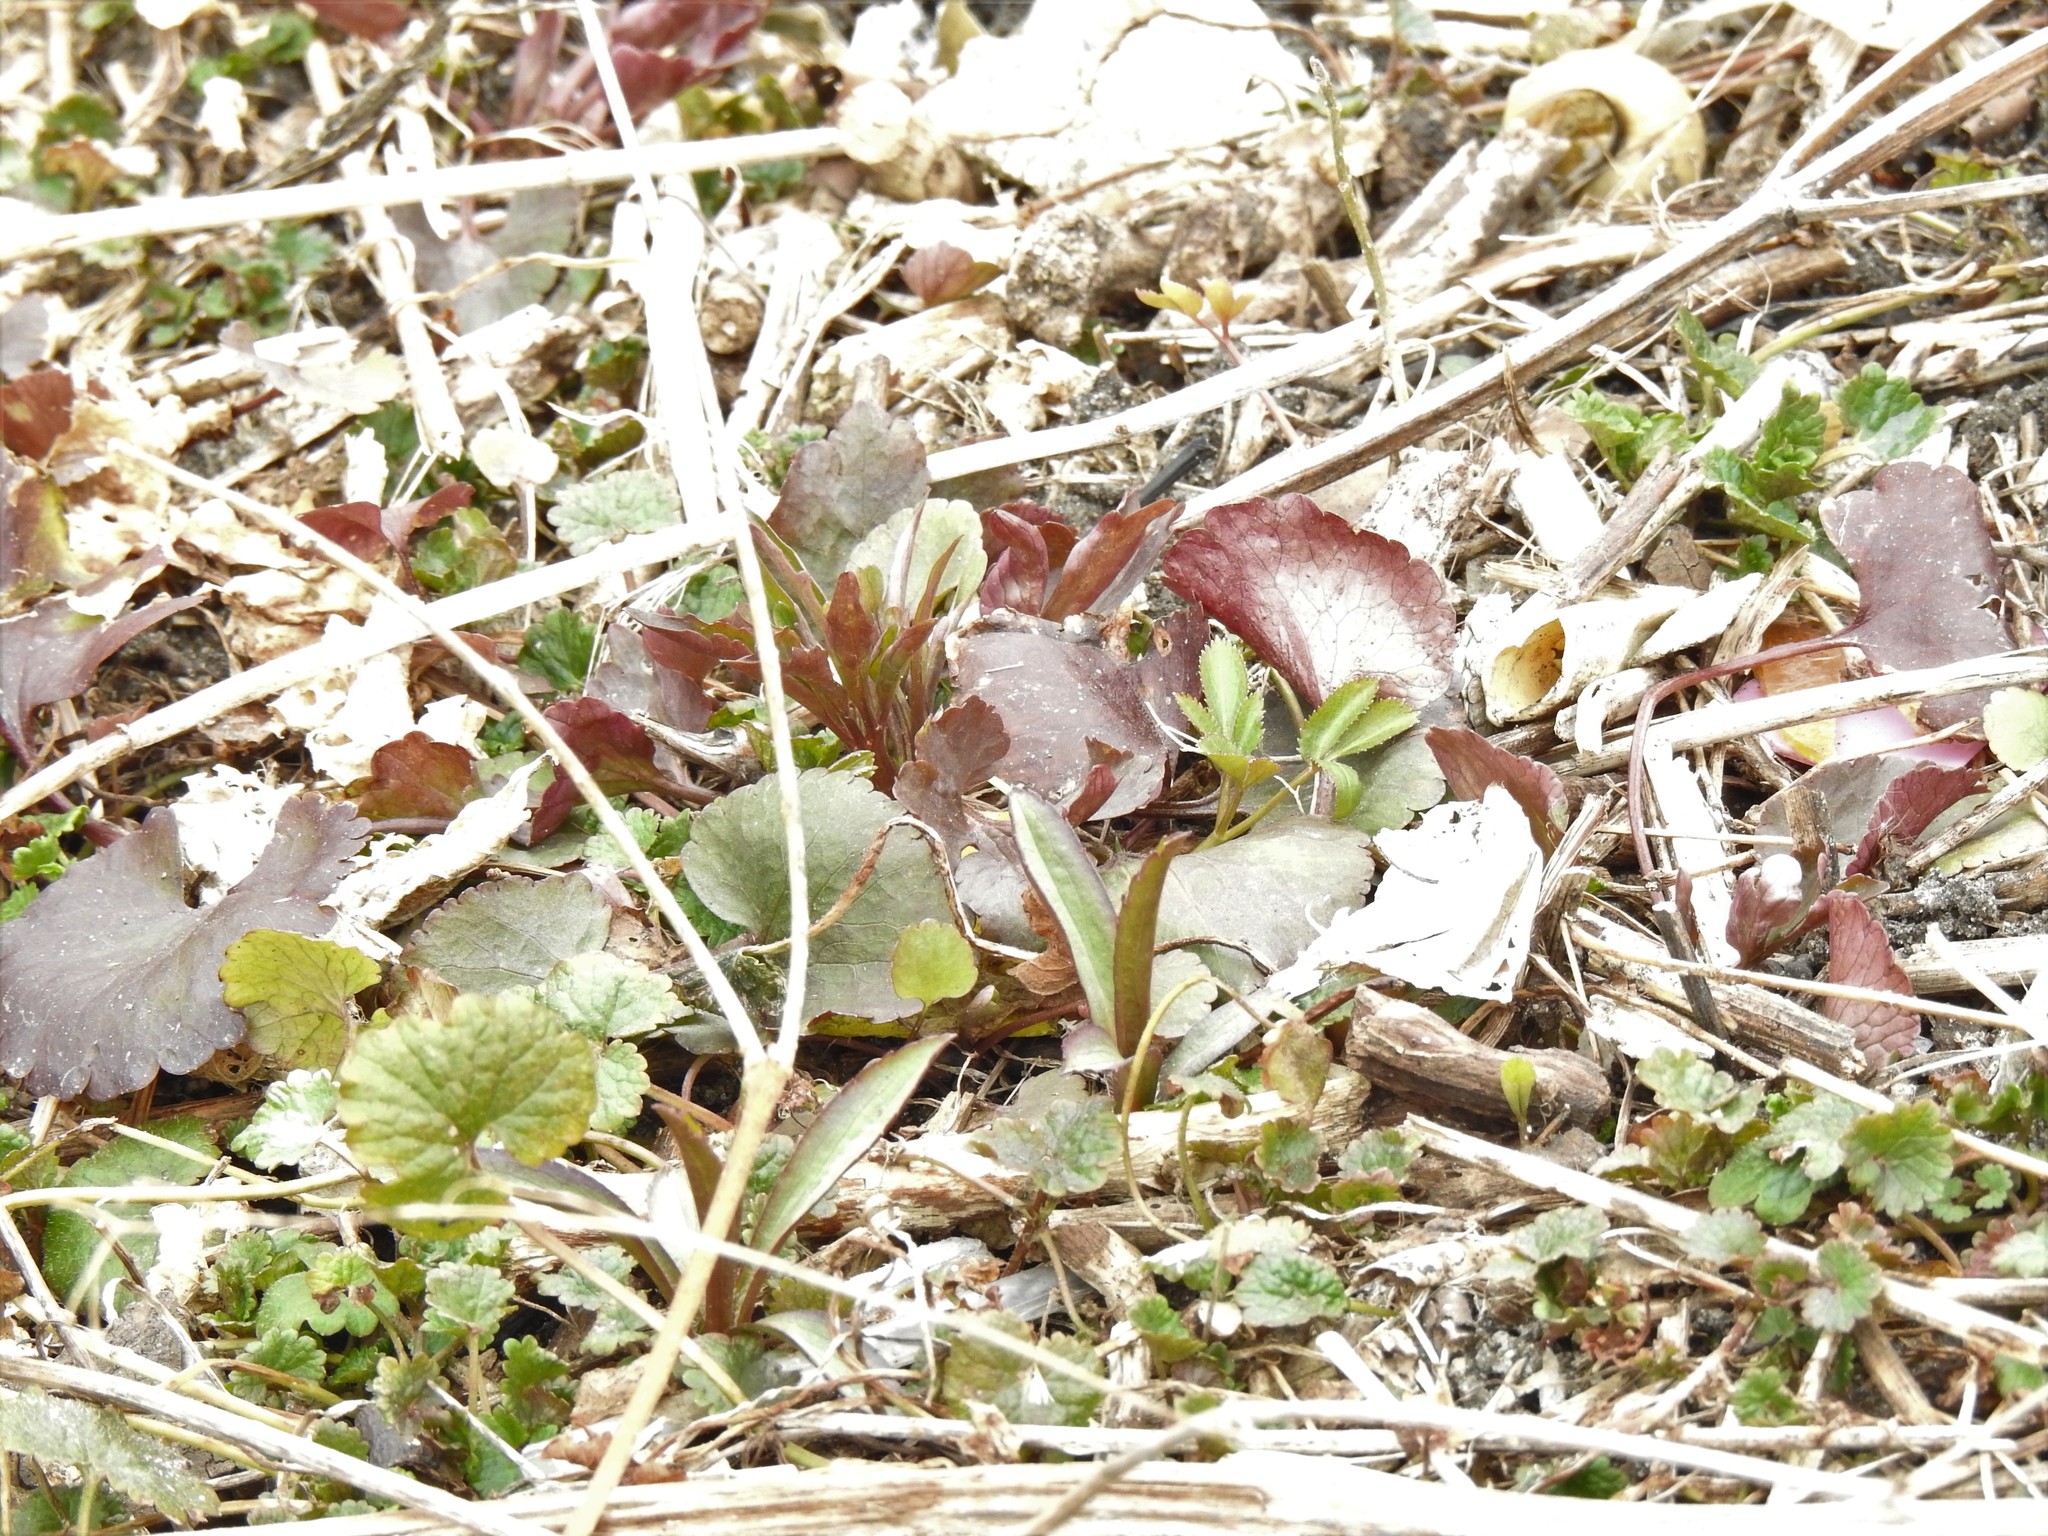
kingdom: Plantae
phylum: Tracheophyta
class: Magnoliopsida
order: Lamiales
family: Lamiaceae
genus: Glechoma
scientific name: Glechoma hederacea
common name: Ground ivy
